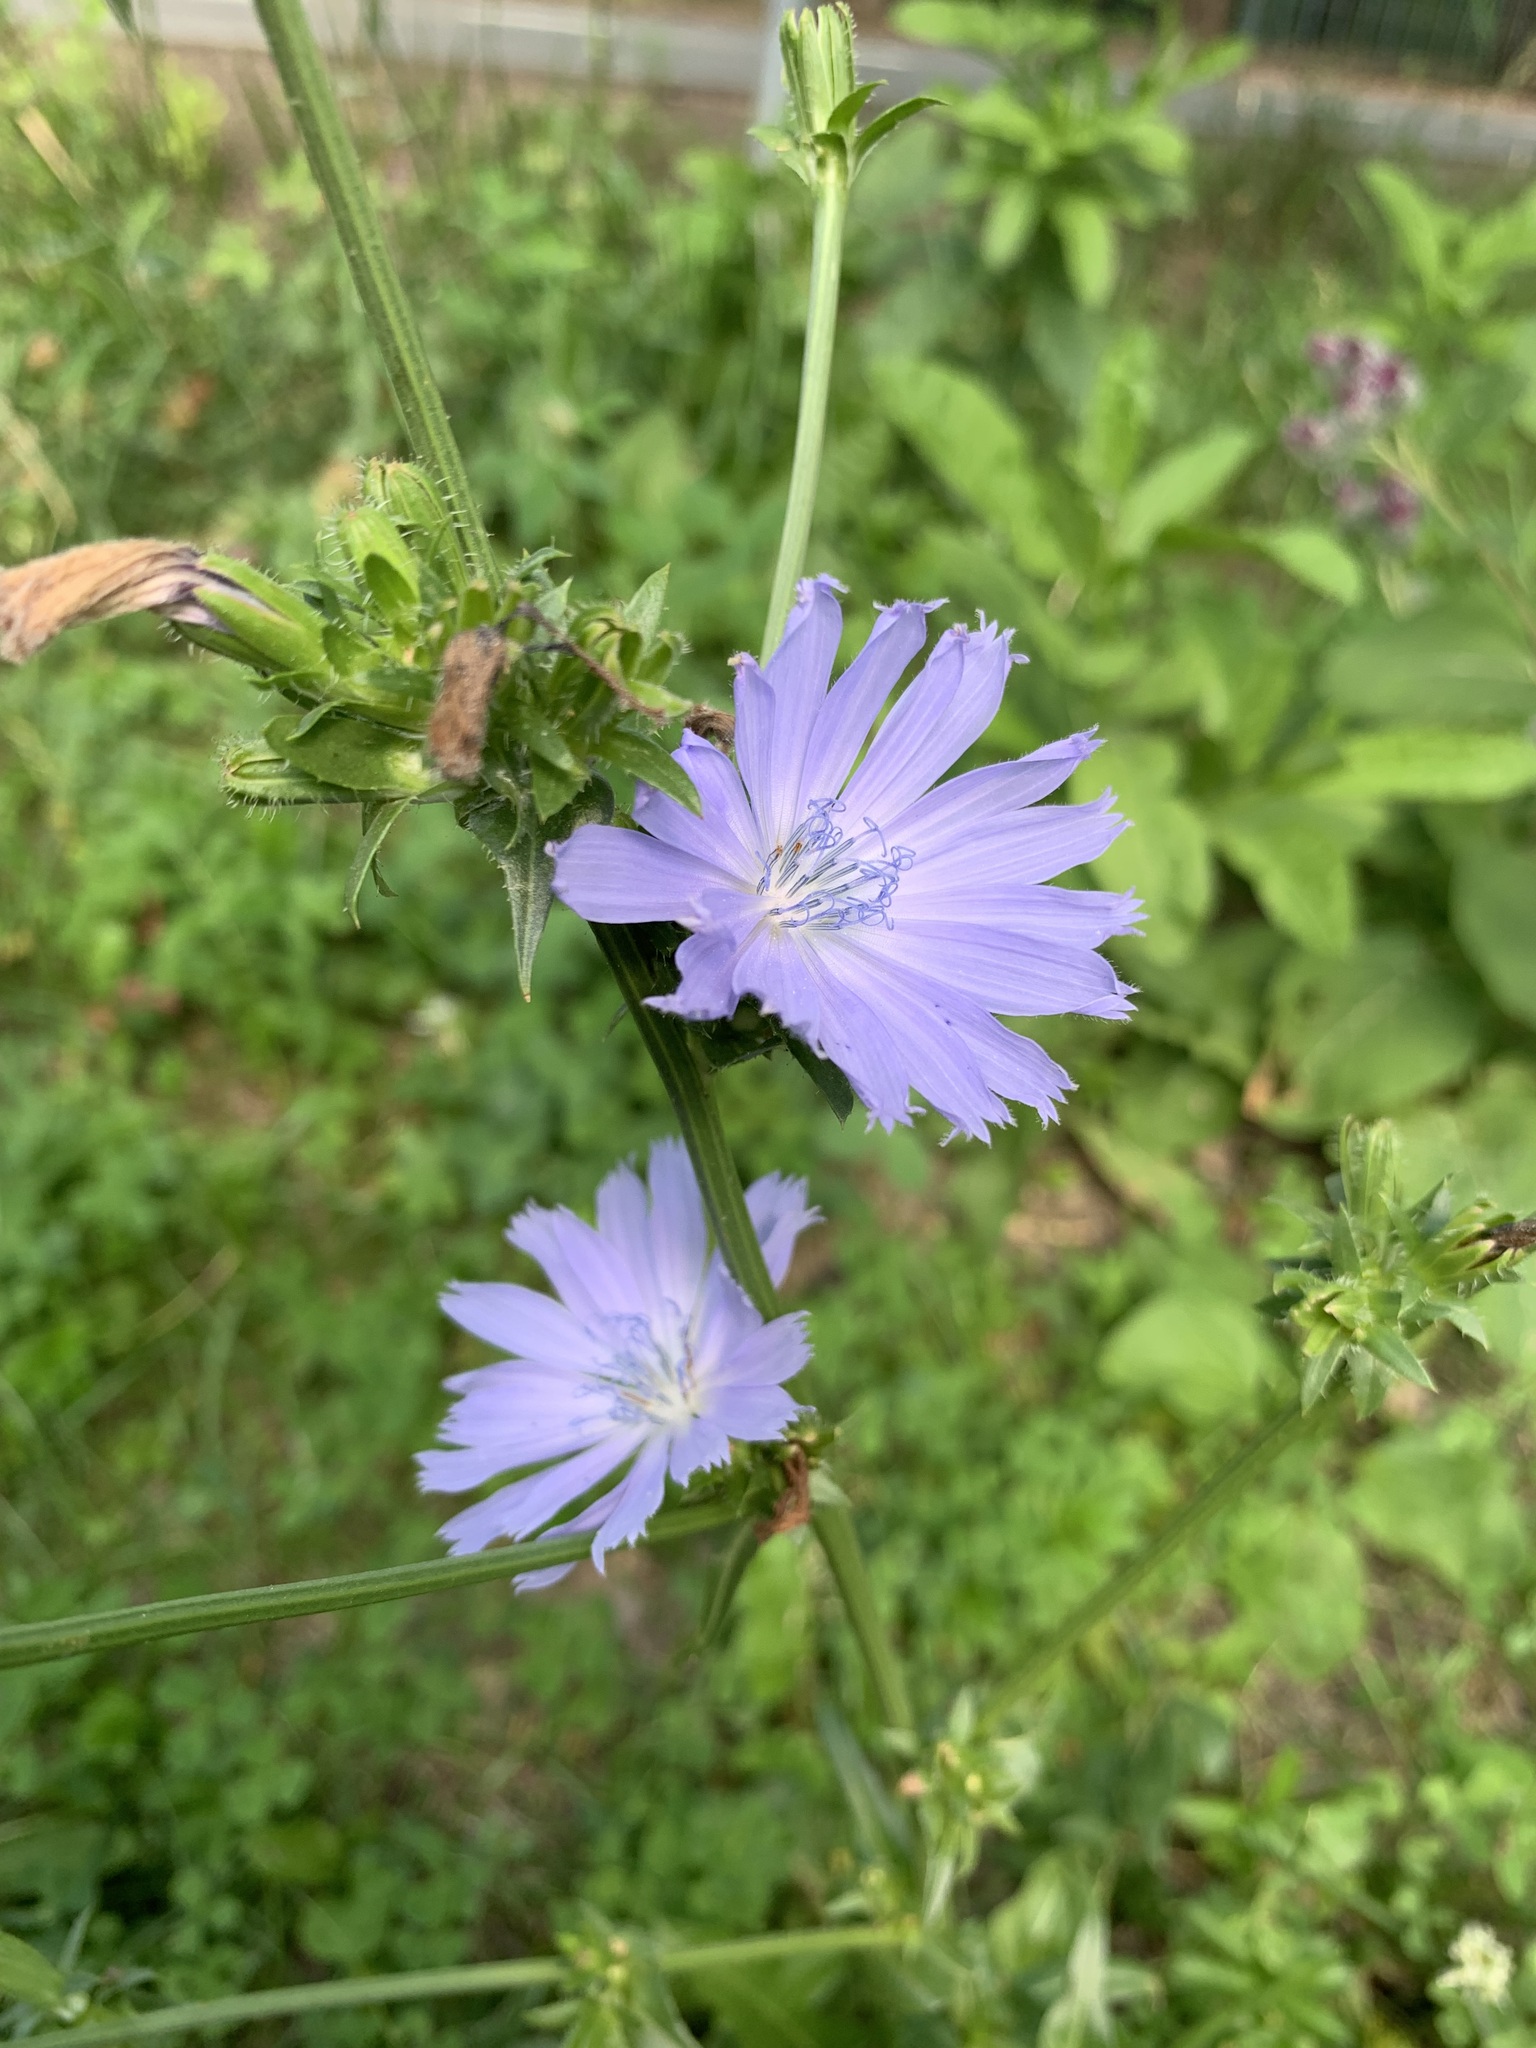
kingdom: Plantae
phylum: Tracheophyta
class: Magnoliopsida
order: Asterales
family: Asteraceae
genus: Cichorium
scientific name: Cichorium intybus
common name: Chicory
